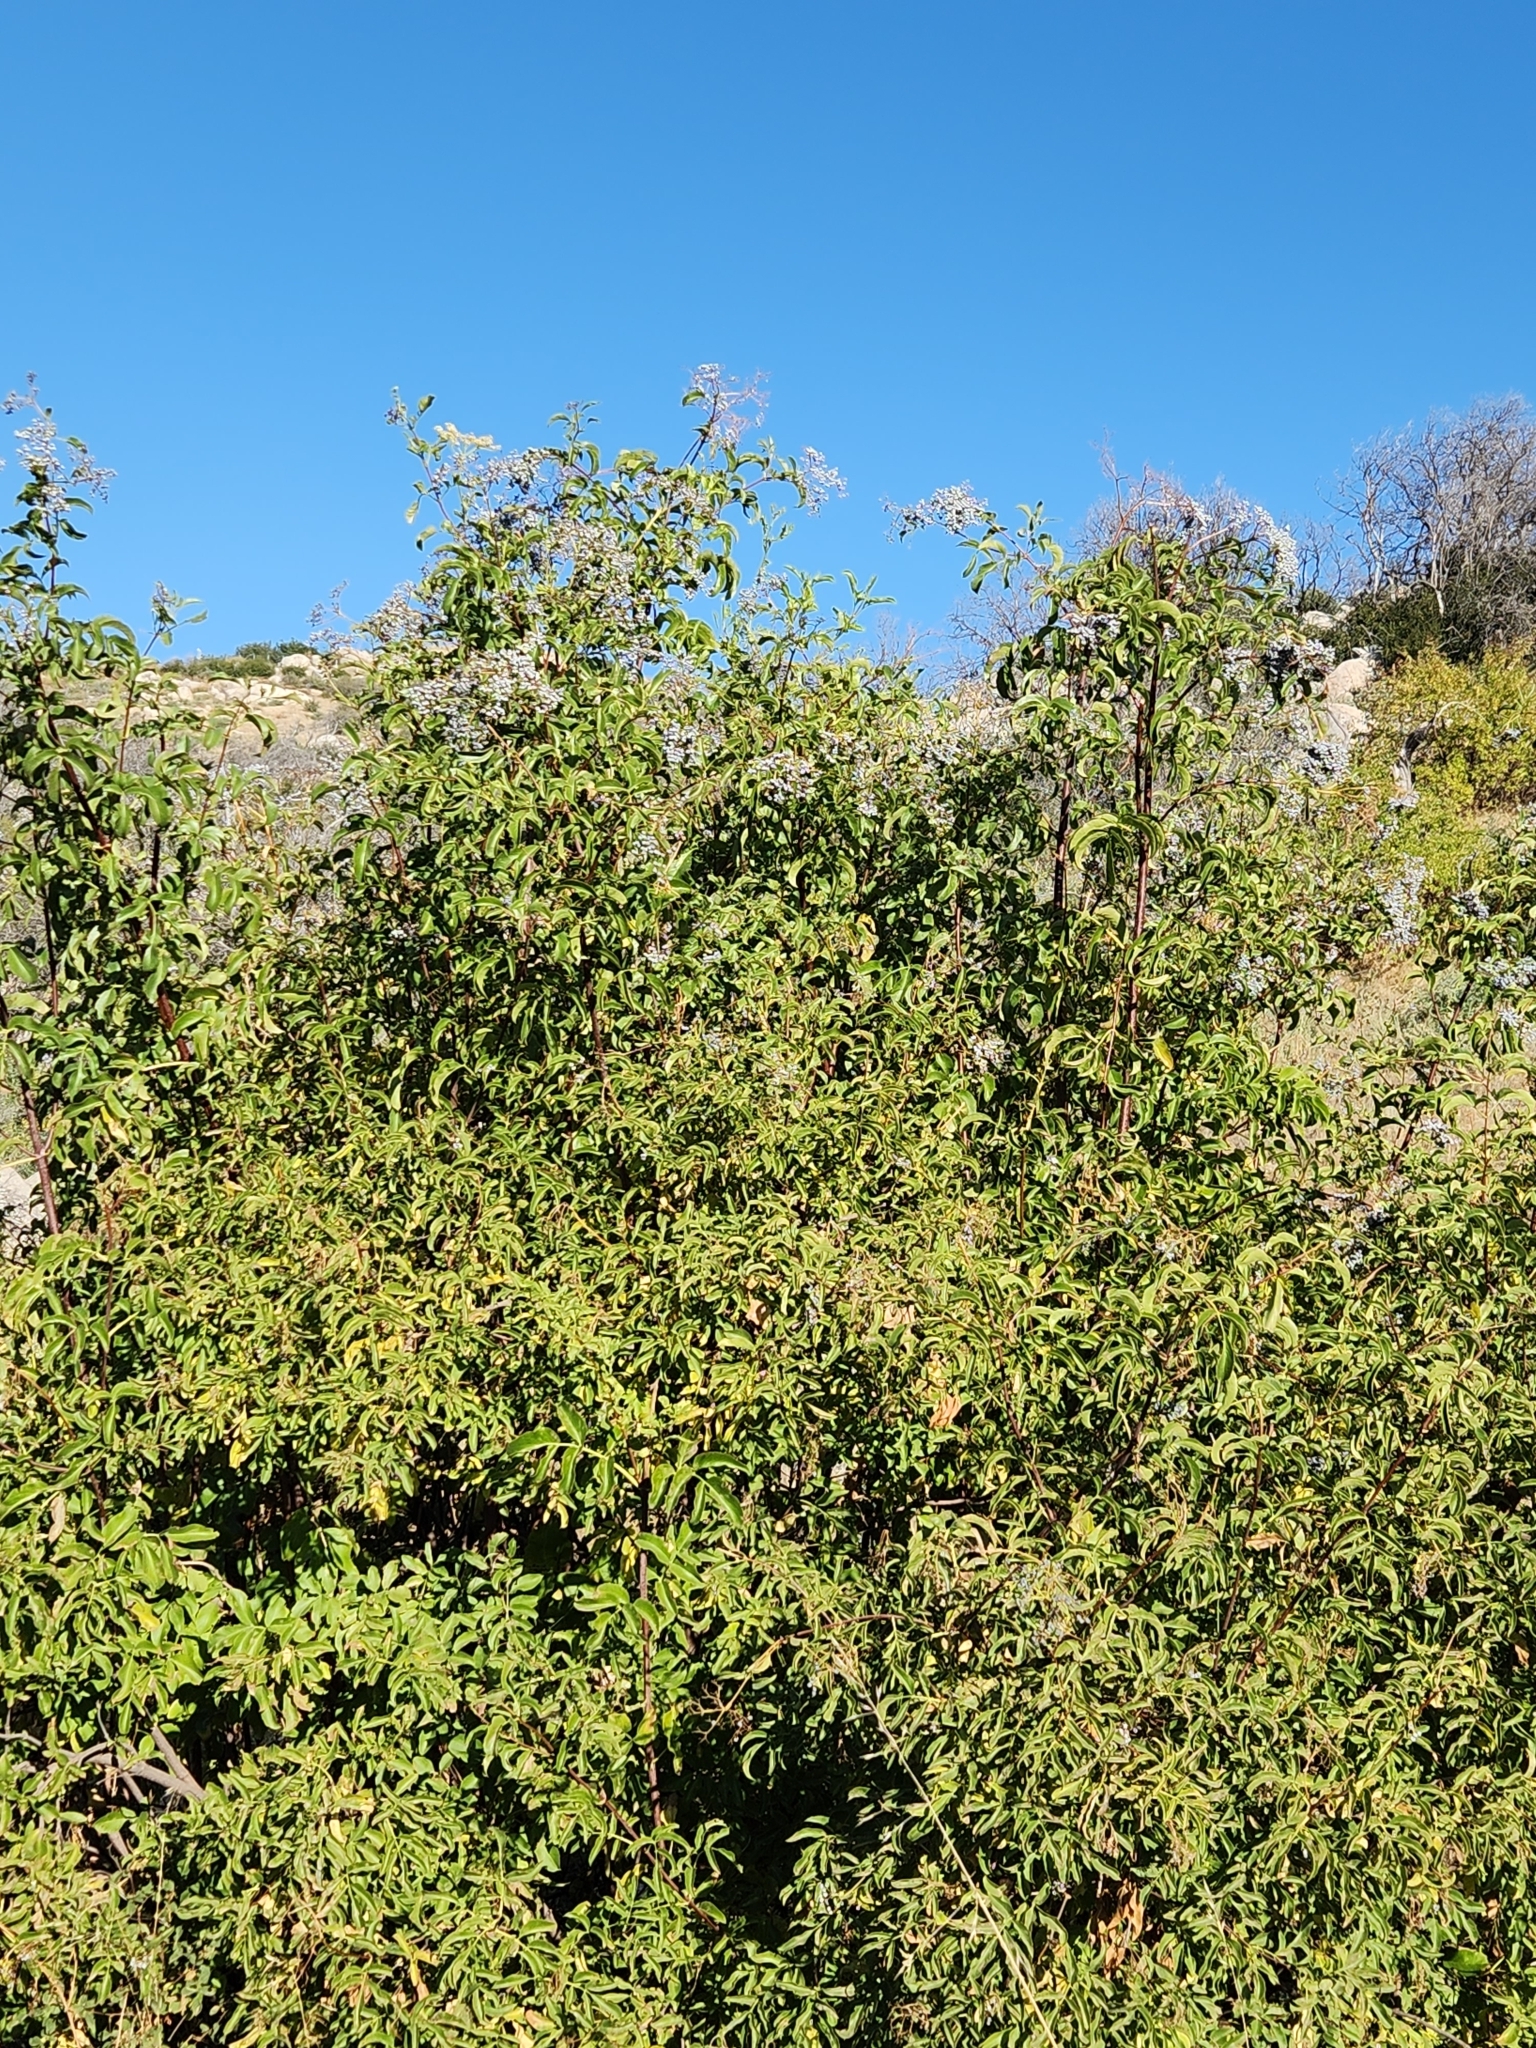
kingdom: Plantae
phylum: Tracheophyta
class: Magnoliopsida
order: Dipsacales
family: Viburnaceae
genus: Sambucus
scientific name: Sambucus cerulea
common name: Blue elder
